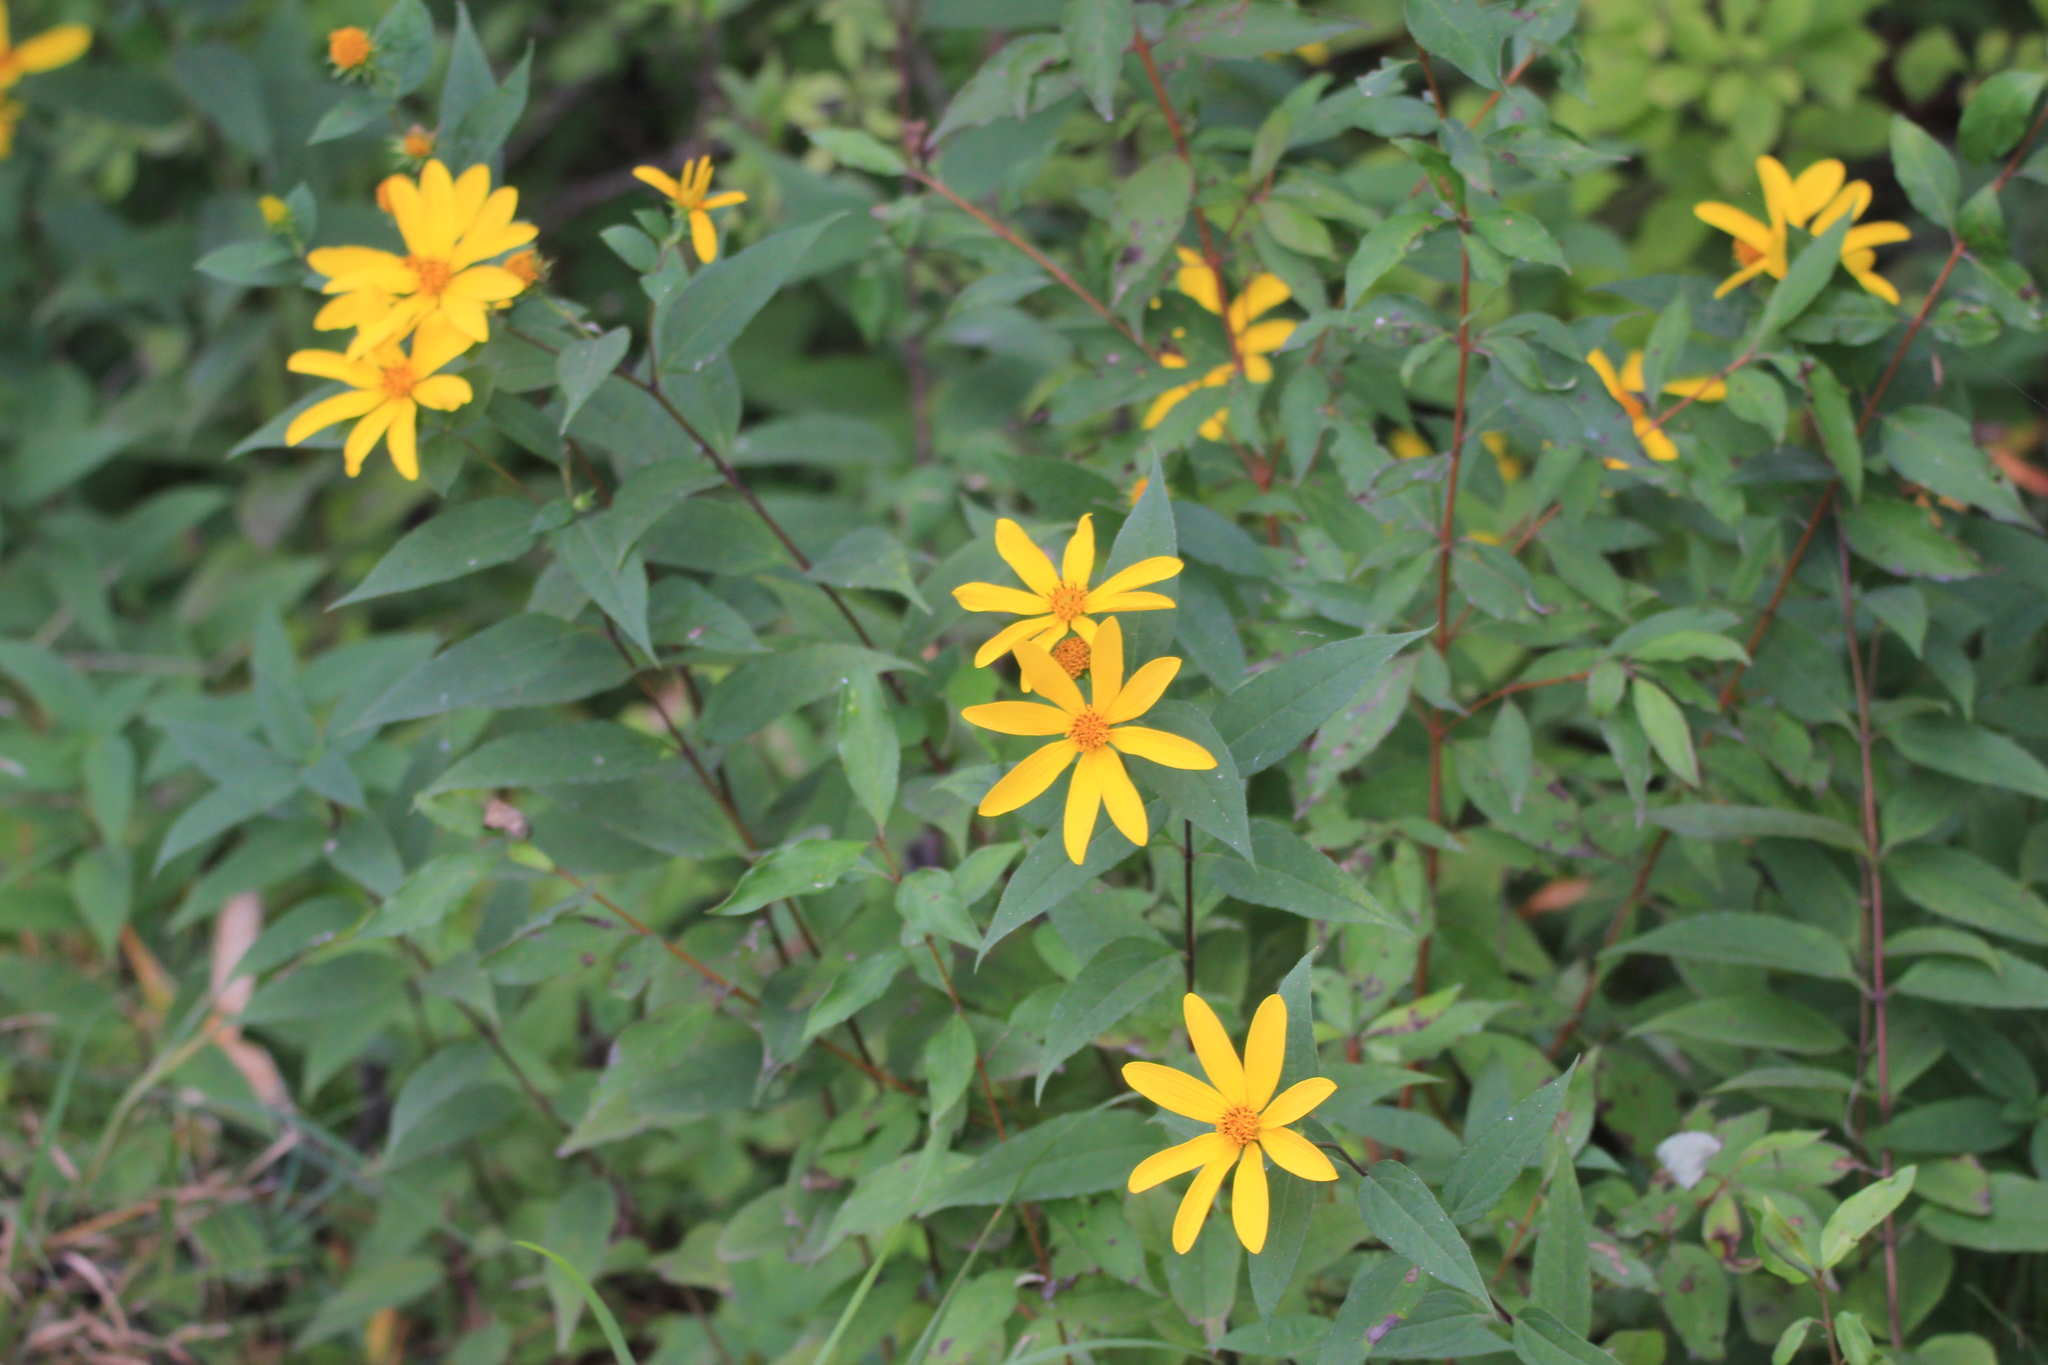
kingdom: Plantae
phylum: Tracheophyta
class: Magnoliopsida
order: Asterales
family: Asteraceae
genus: Helianthus
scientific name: Helianthus strumosus
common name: Pale-leaved sunflower
